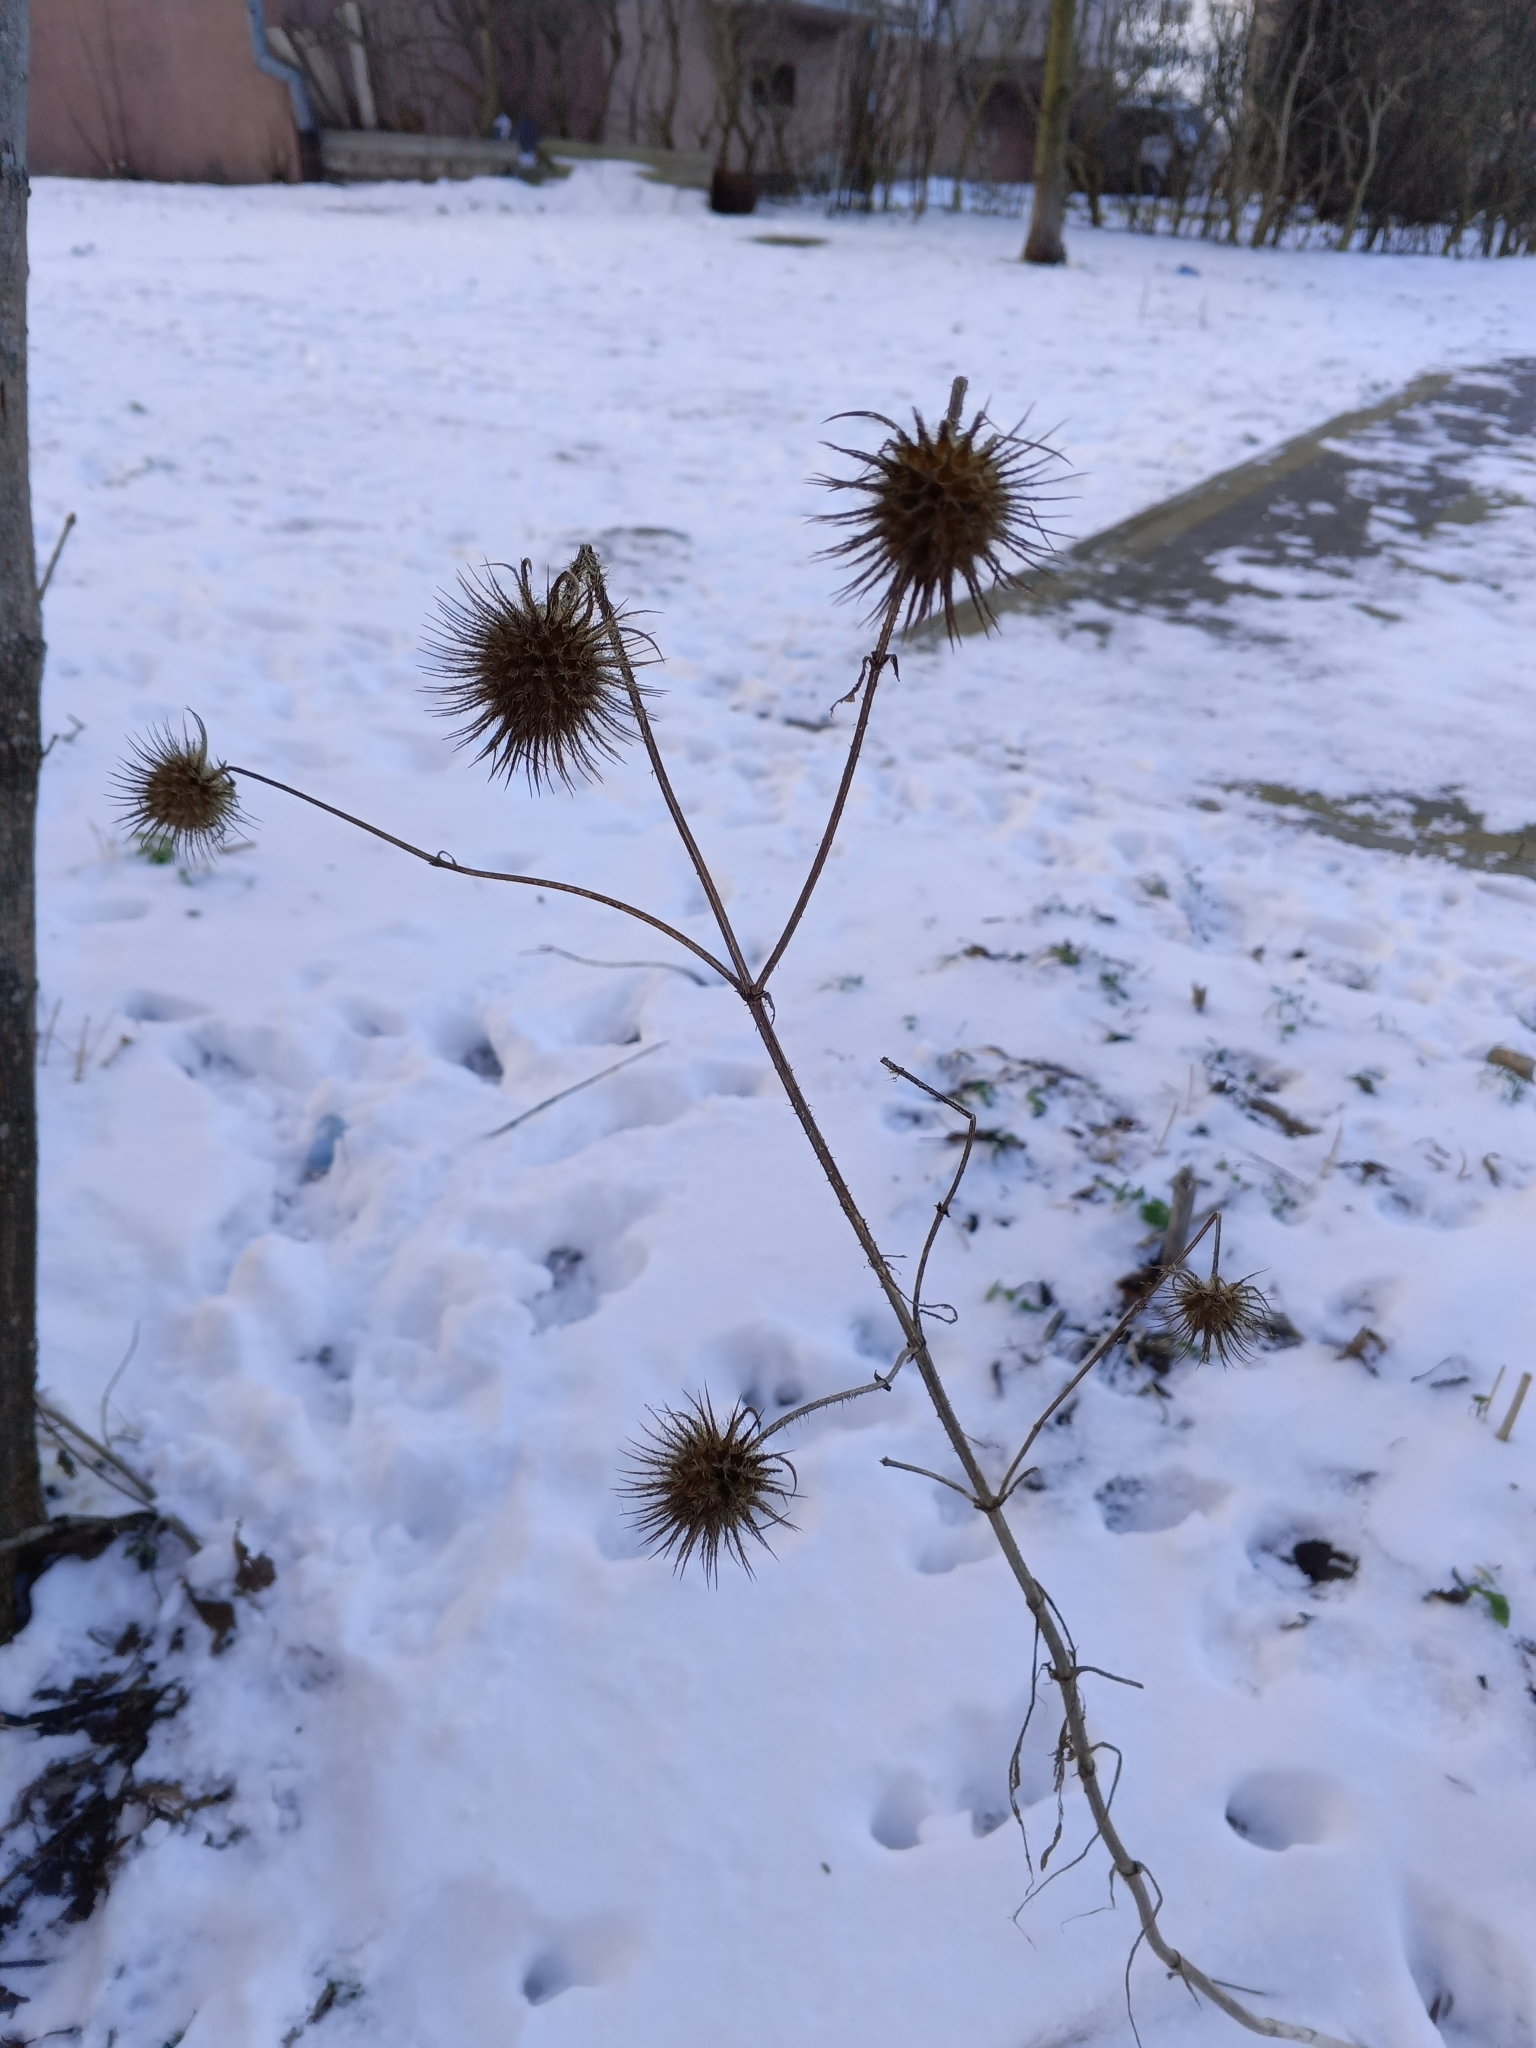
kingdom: Plantae
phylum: Tracheophyta
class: Magnoliopsida
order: Dipsacales
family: Caprifoliaceae
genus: Dipsacus
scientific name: Dipsacus strigosus
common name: Yellow-flowered teasel
